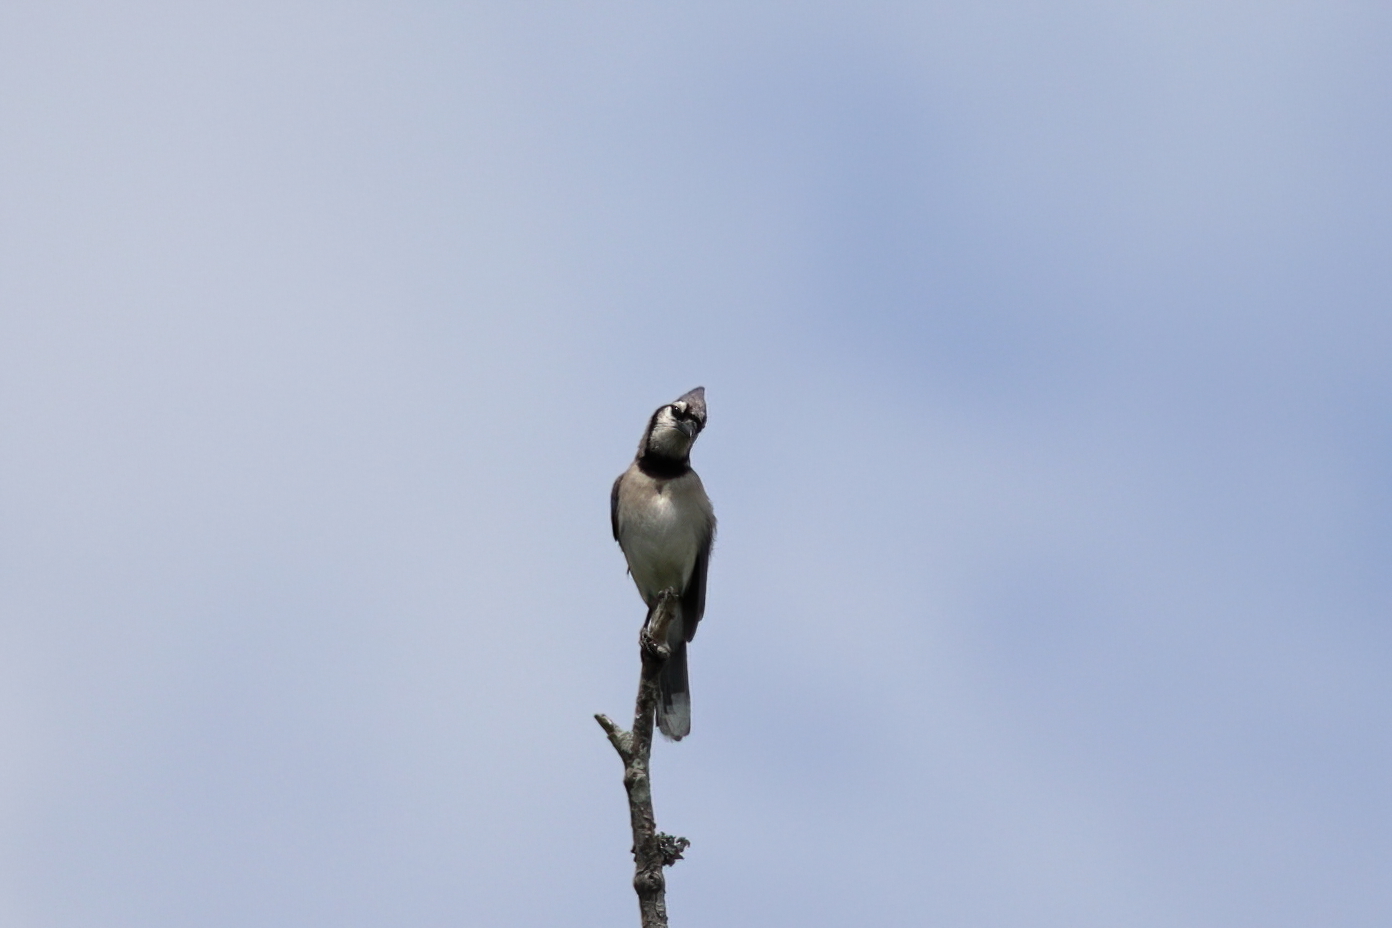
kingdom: Animalia
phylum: Chordata
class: Aves
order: Passeriformes
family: Corvidae
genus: Cyanocitta
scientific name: Cyanocitta cristata
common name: Blue jay
